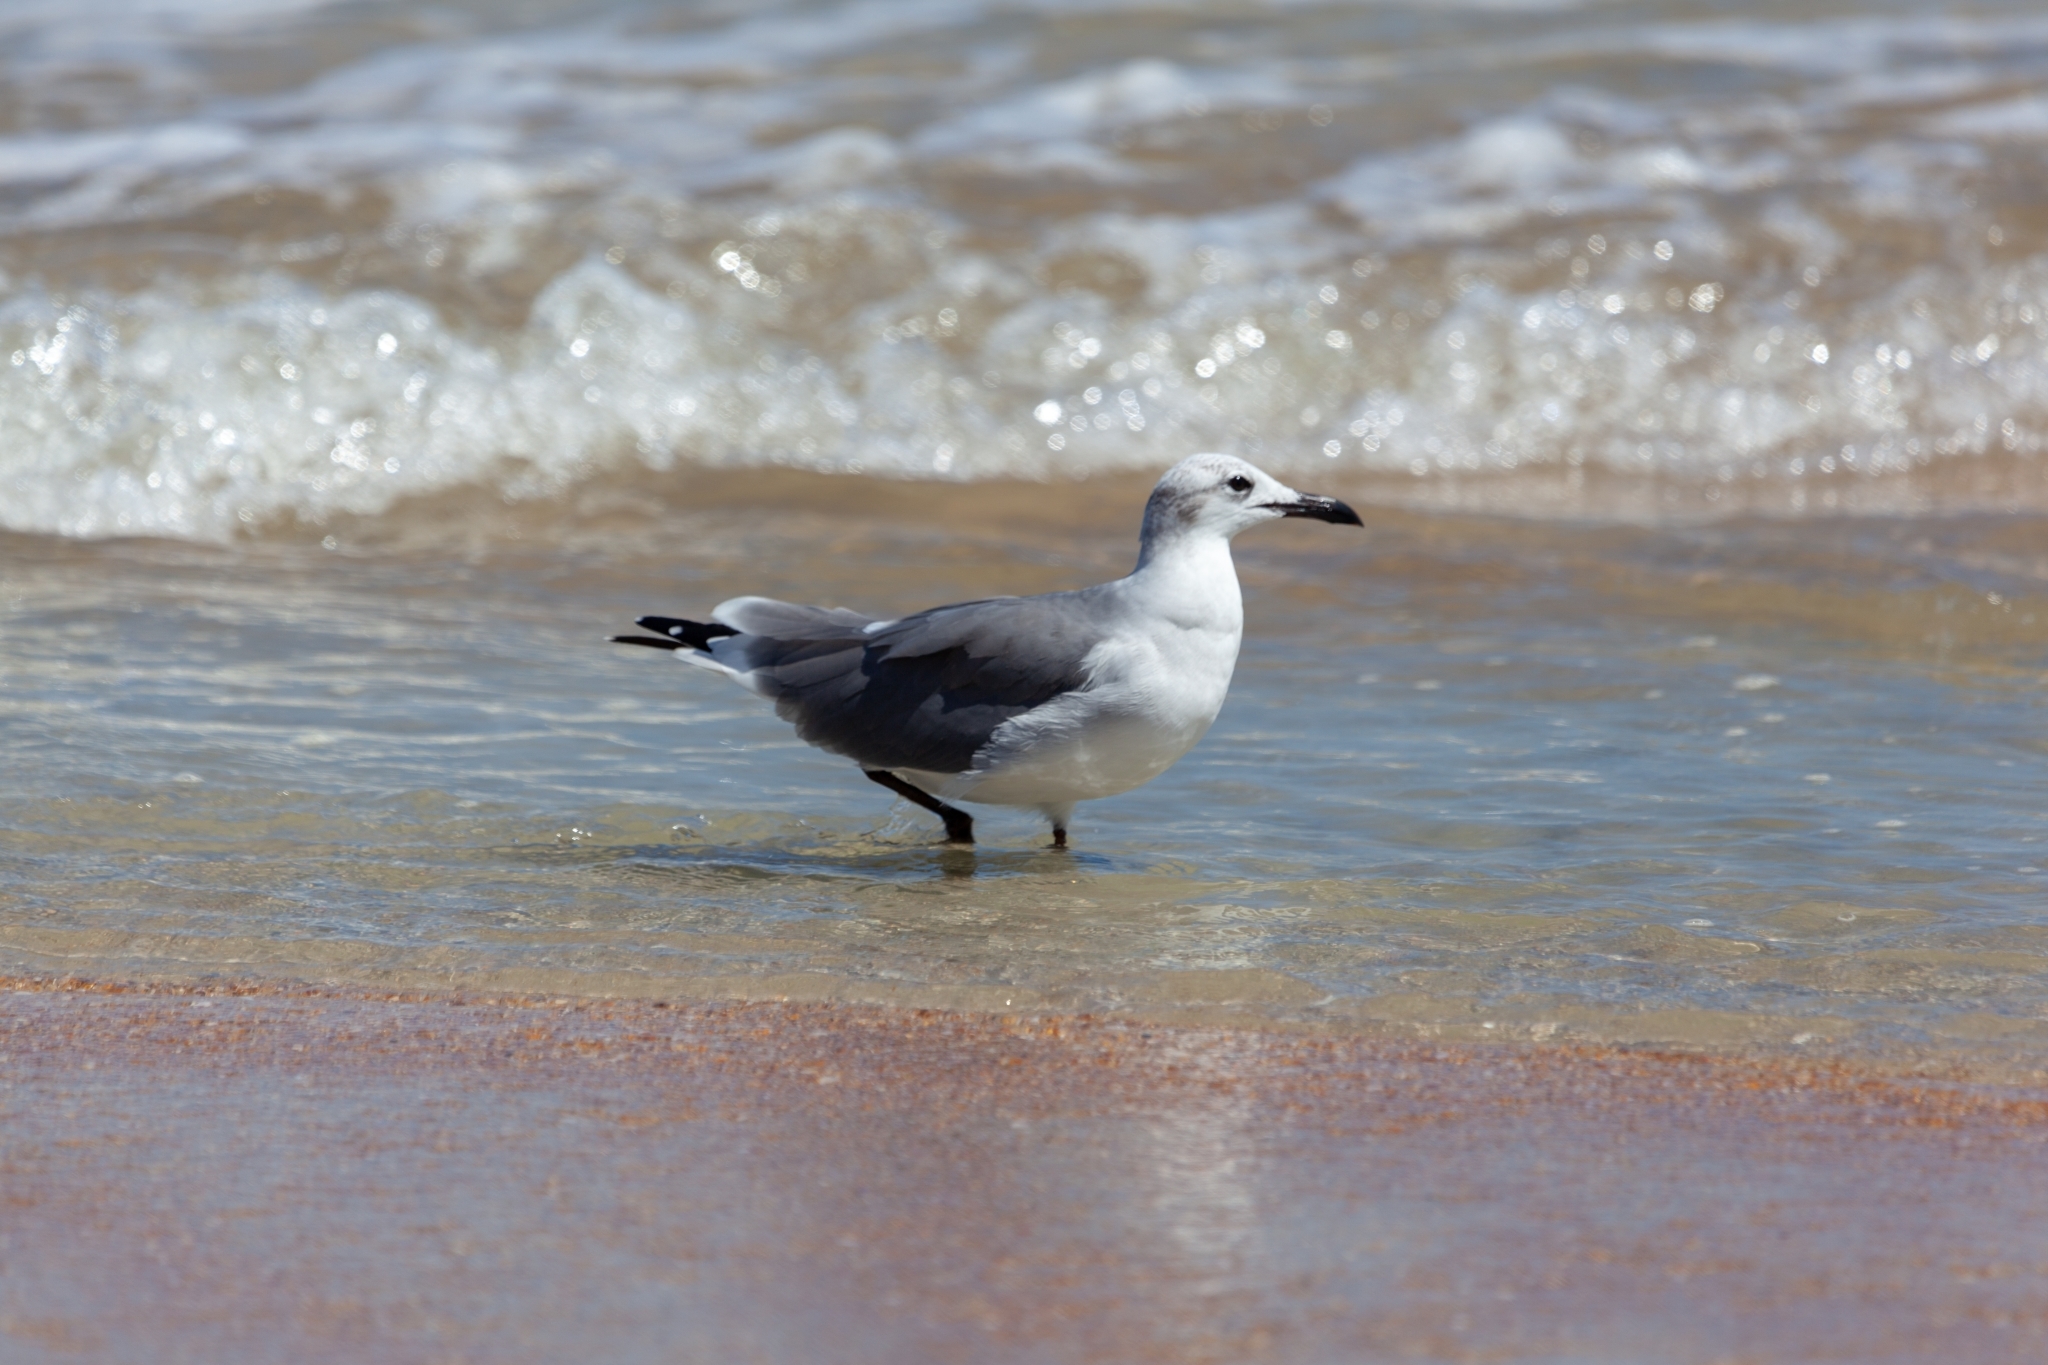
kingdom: Animalia
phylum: Chordata
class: Aves
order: Charadriiformes
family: Laridae
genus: Leucophaeus
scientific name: Leucophaeus atricilla
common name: Laughing gull
